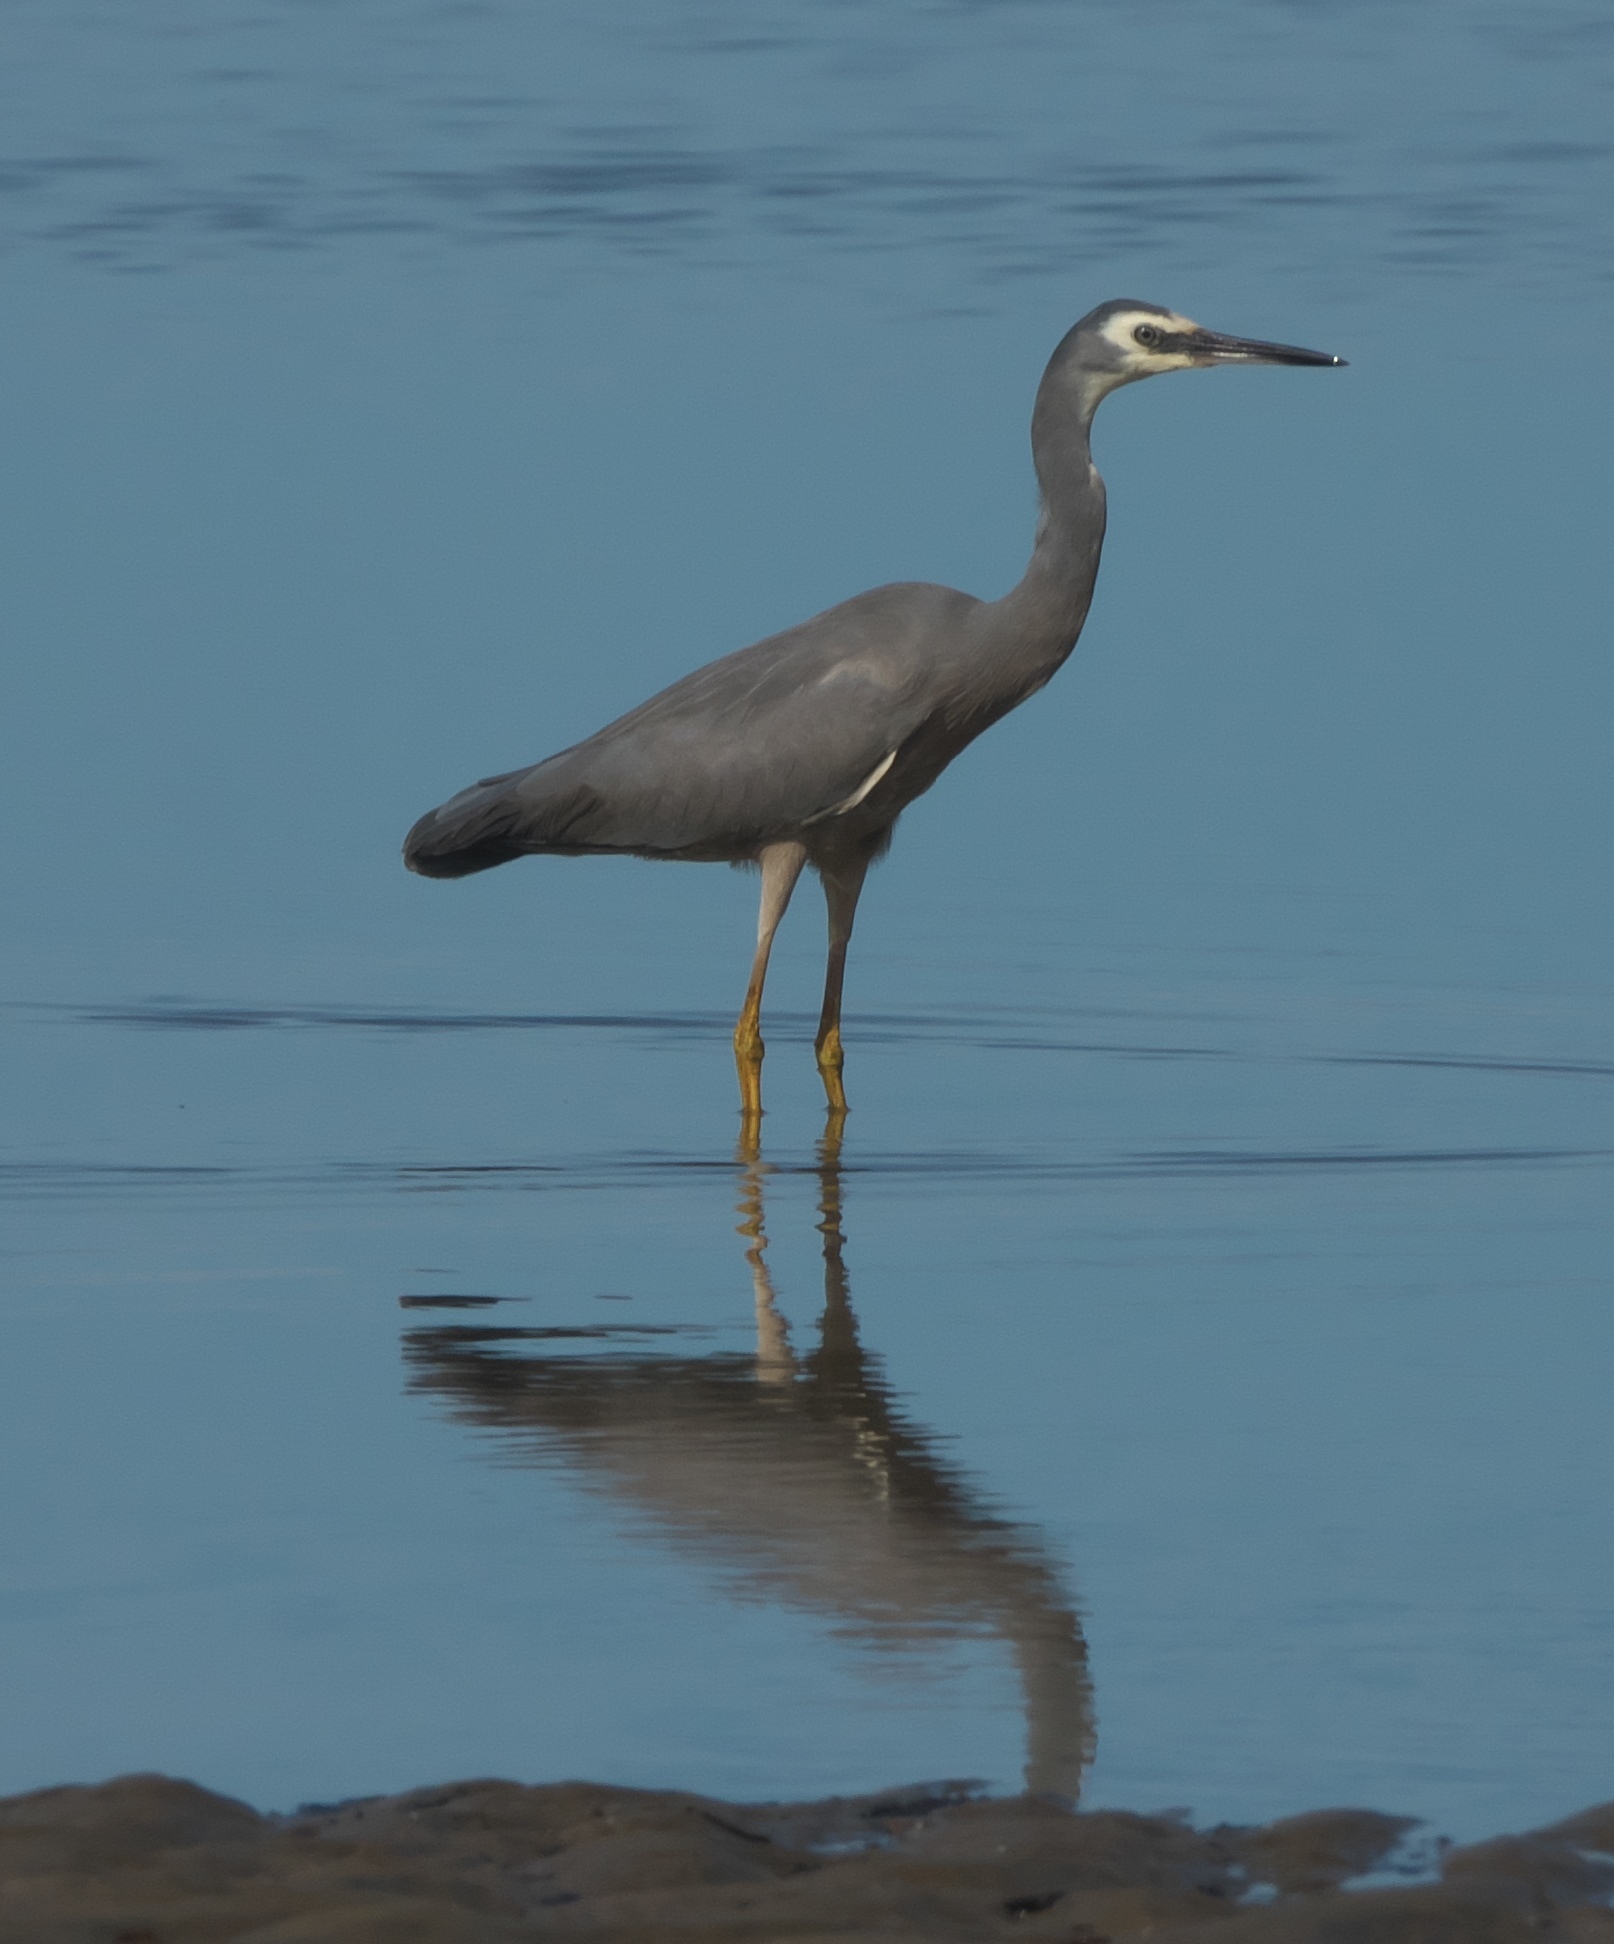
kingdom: Animalia
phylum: Chordata
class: Aves
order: Pelecaniformes
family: Ardeidae
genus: Egretta
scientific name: Egretta novaehollandiae
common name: White-faced heron
